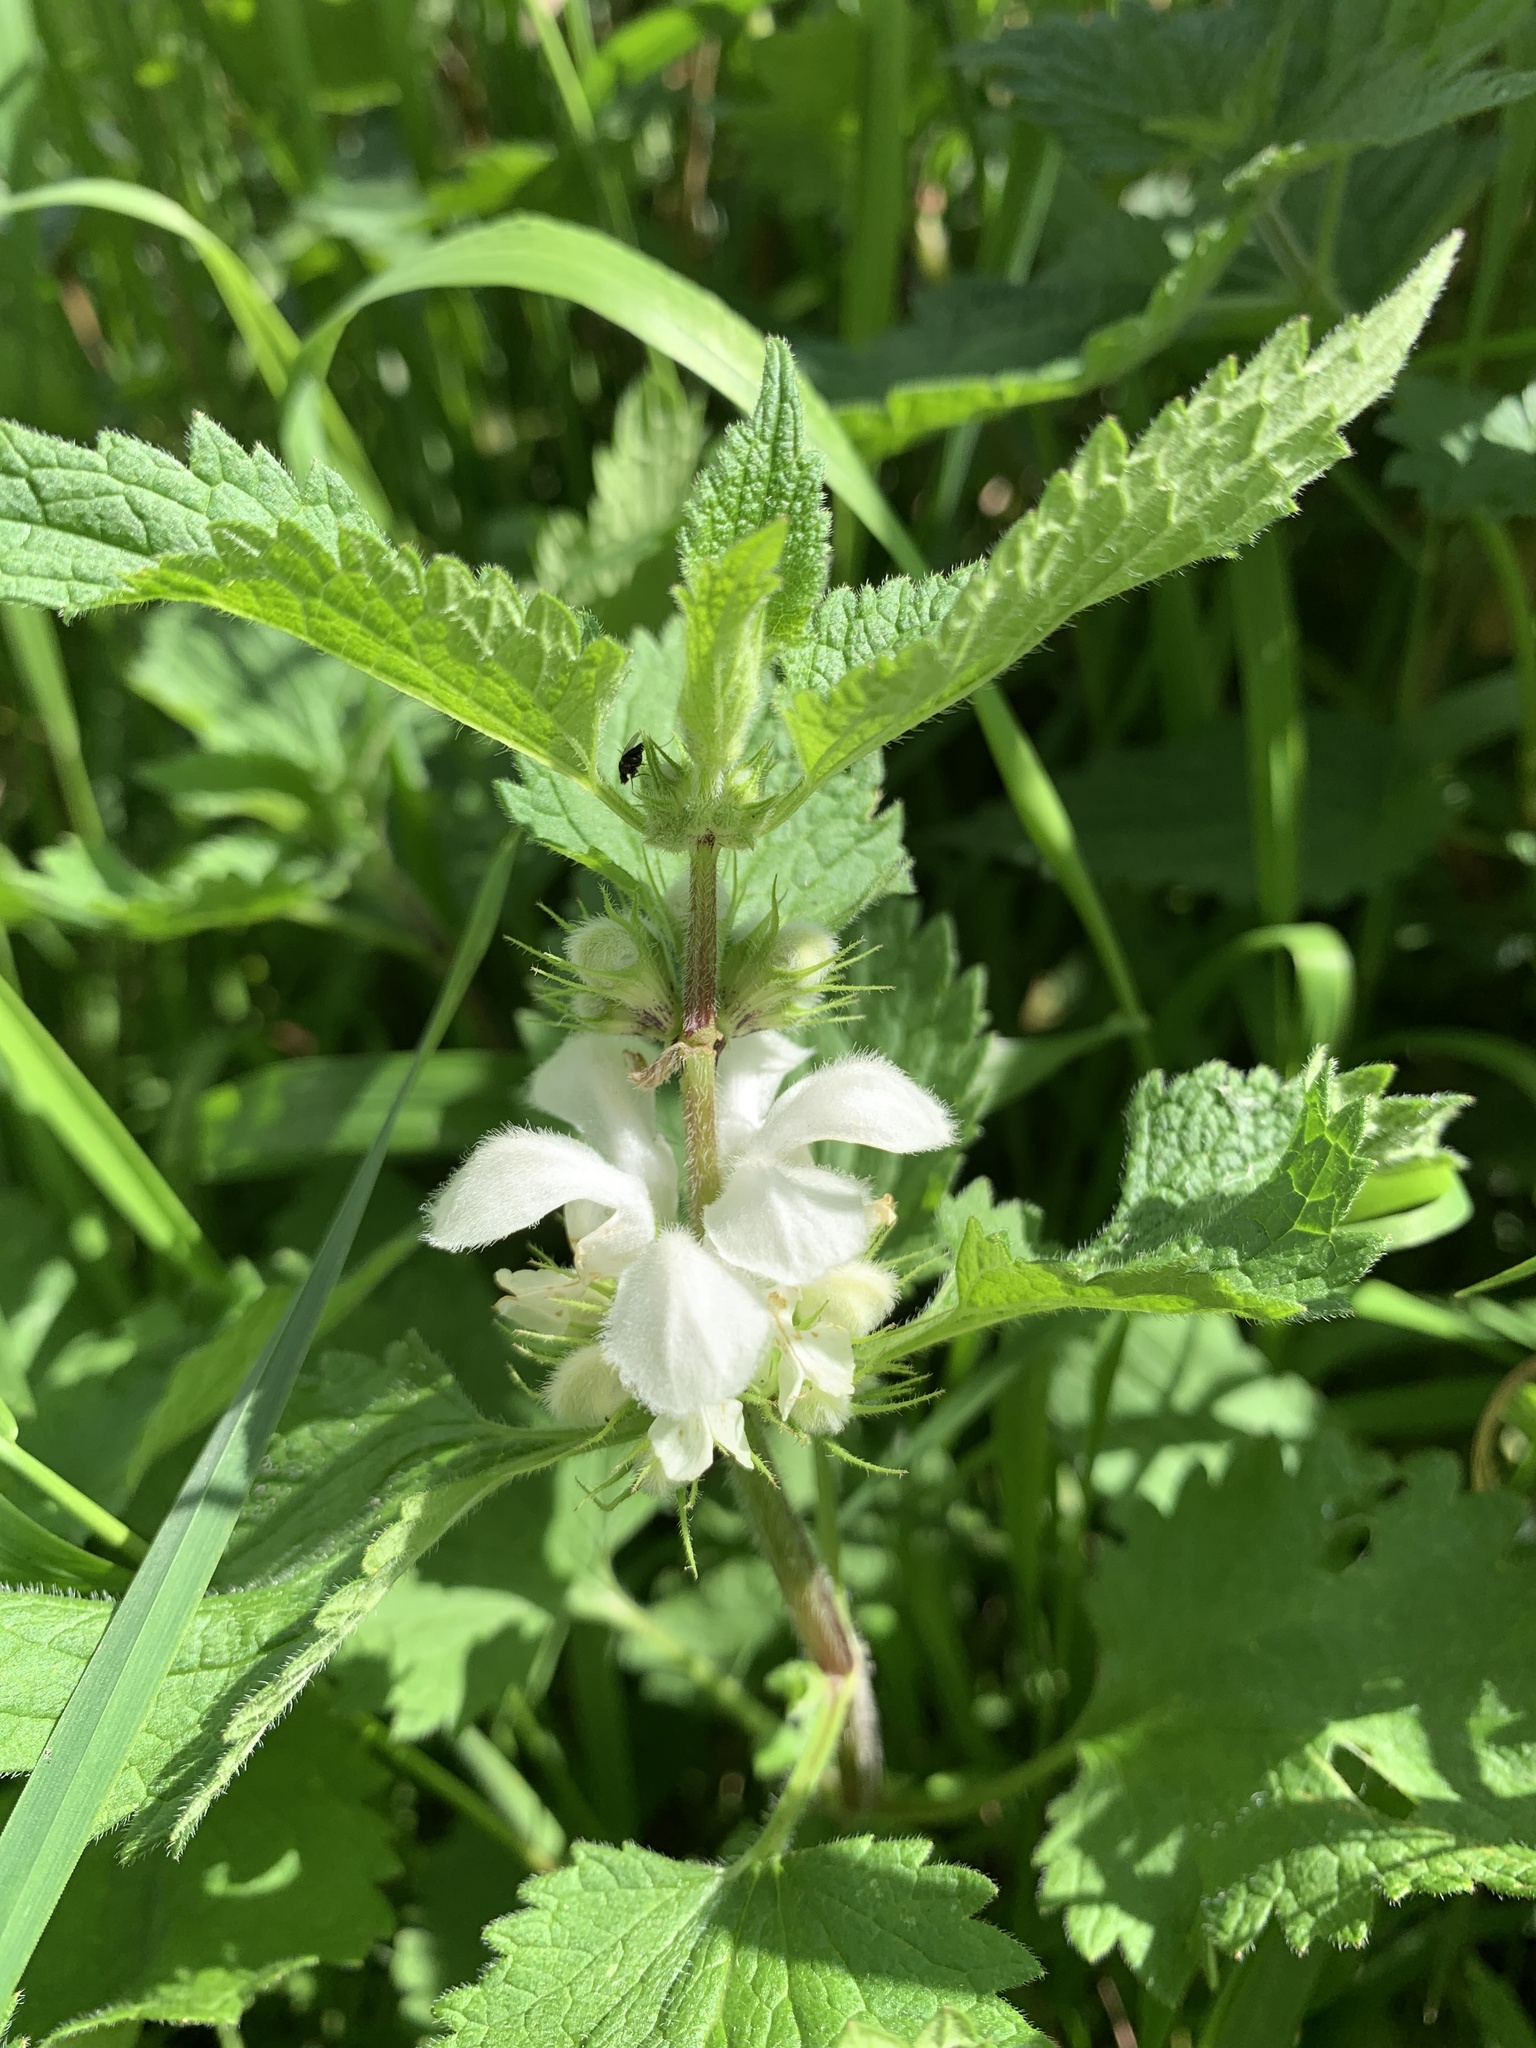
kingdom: Plantae
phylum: Tracheophyta
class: Magnoliopsida
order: Lamiales
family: Lamiaceae
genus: Lamium
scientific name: Lamium album
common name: White dead-nettle
